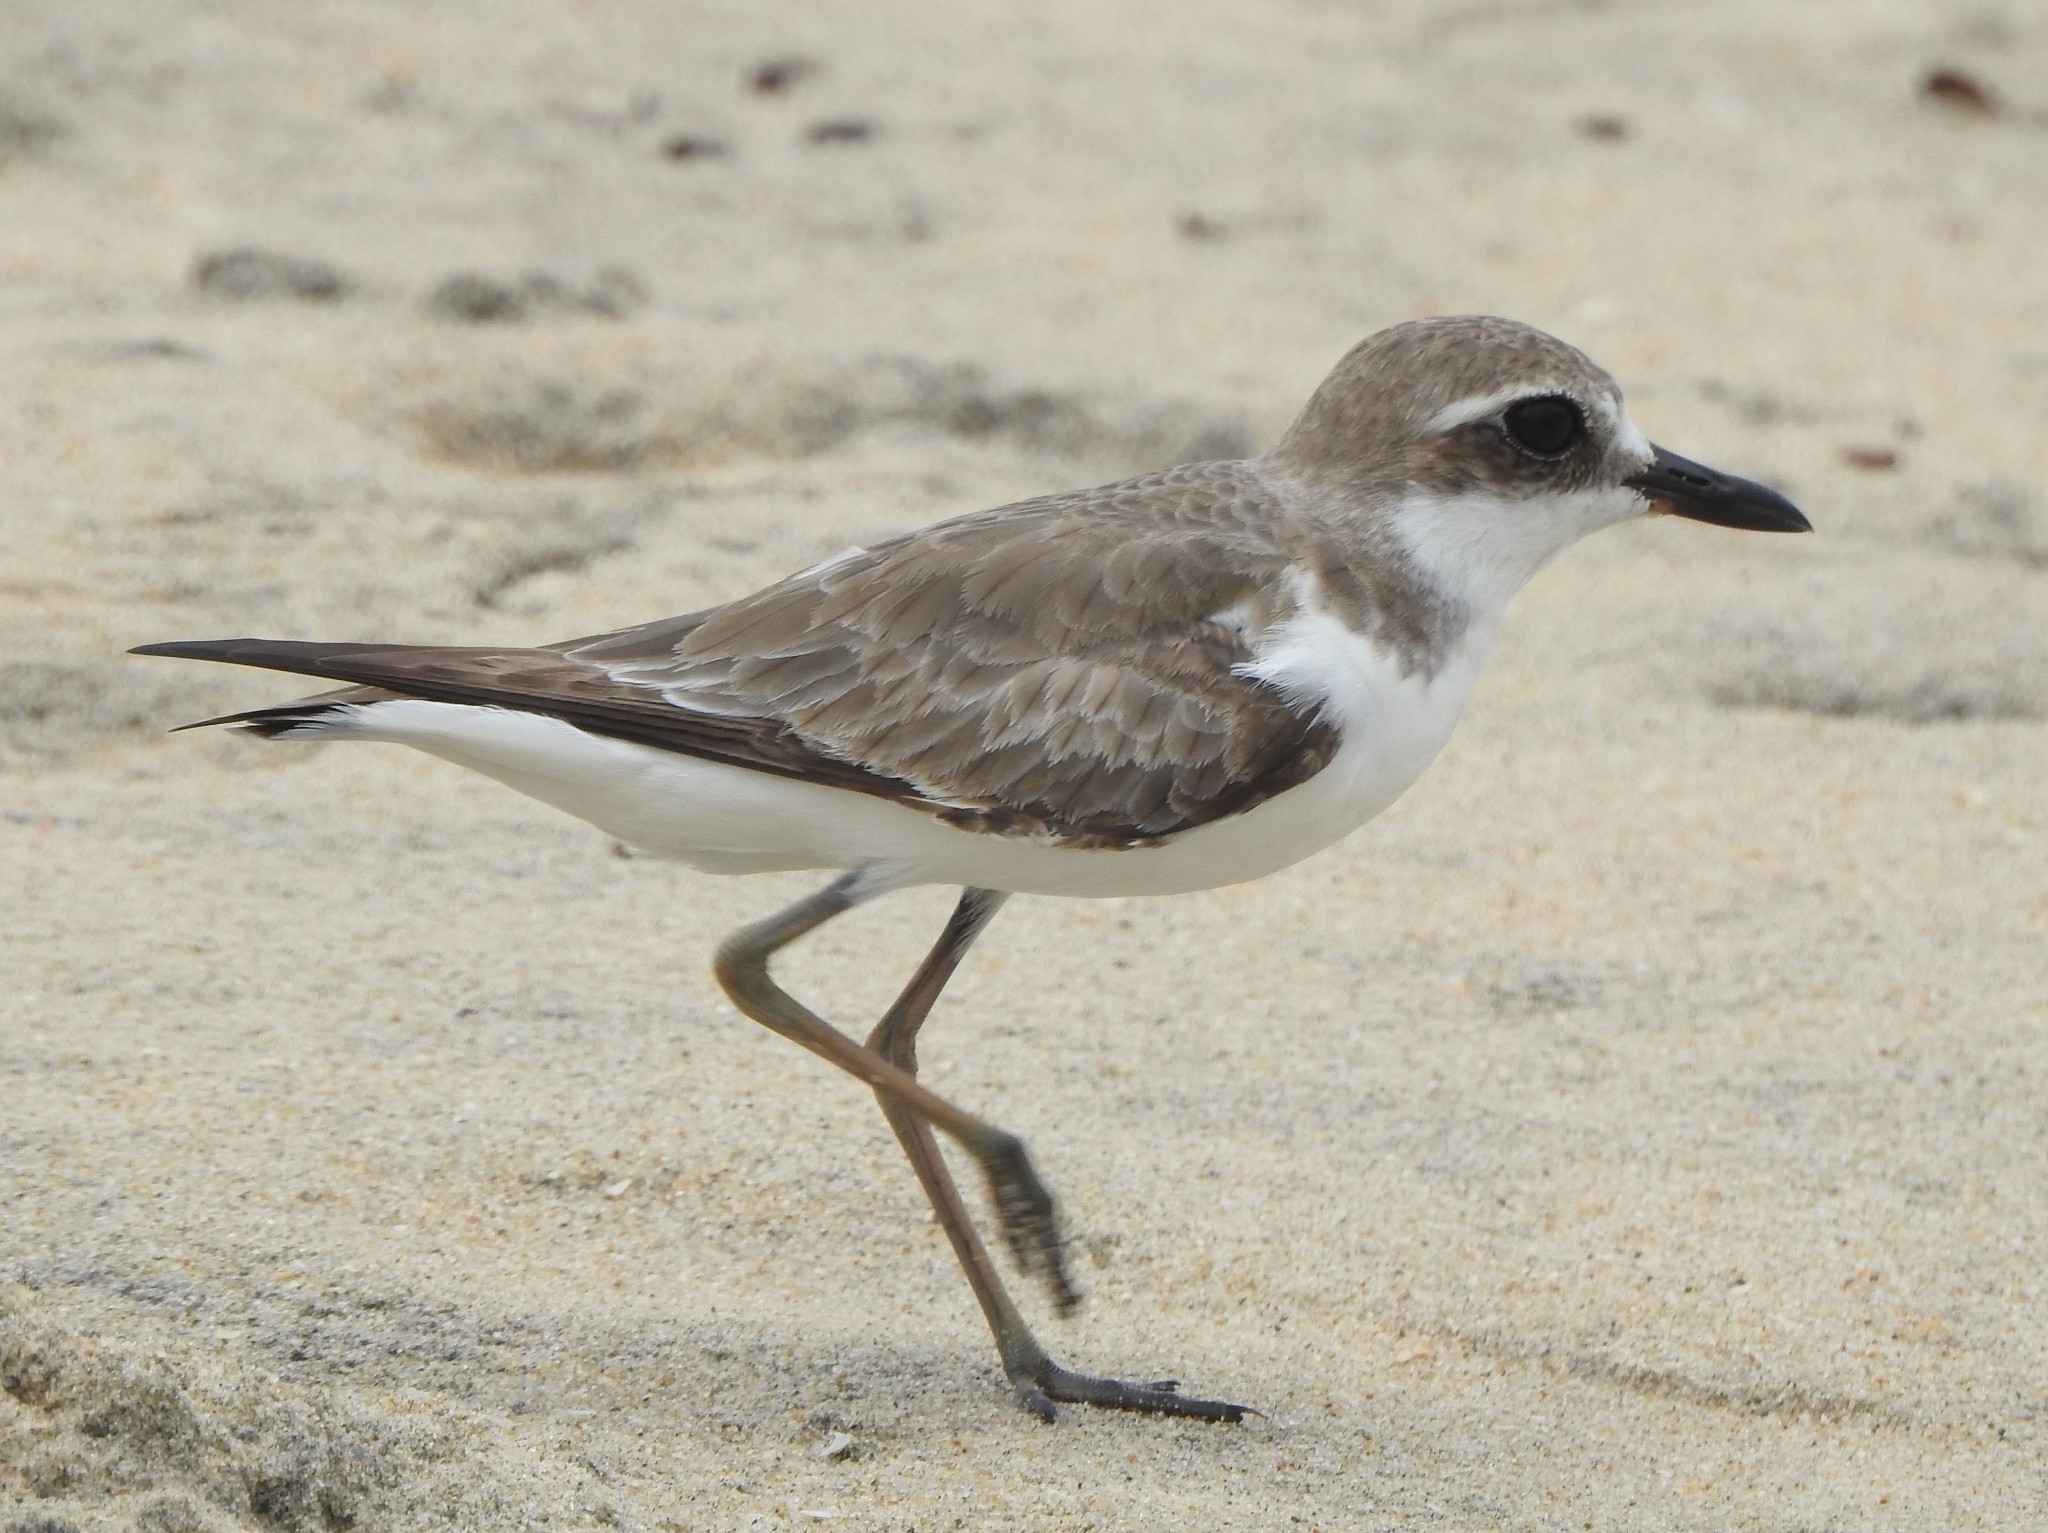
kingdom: Animalia
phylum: Chordata
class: Aves
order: Charadriiformes
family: Charadriidae
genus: Charadrius
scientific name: Charadrius leschenaultii
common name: Greater sand plover
